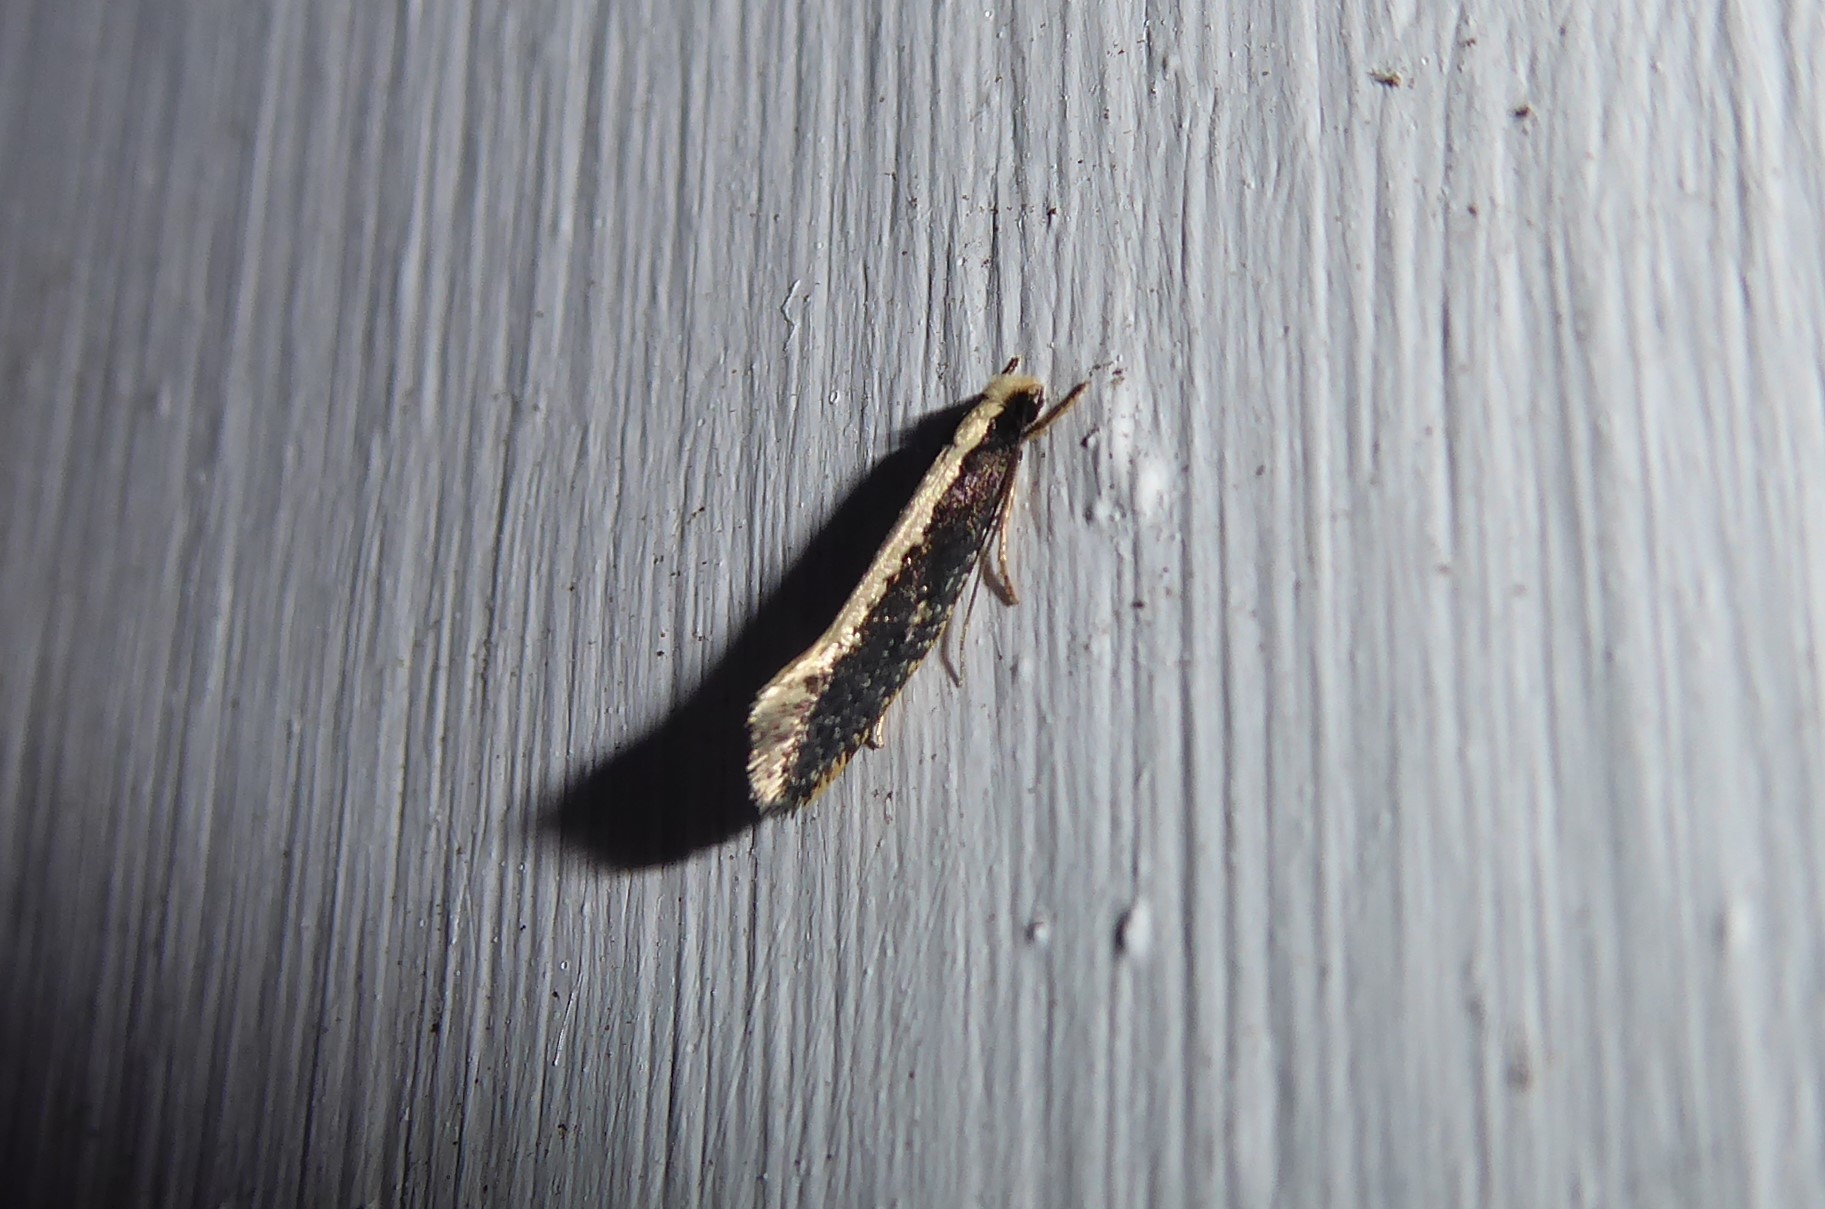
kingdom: Animalia
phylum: Arthropoda
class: Insecta
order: Lepidoptera
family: Tineidae
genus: Monopis
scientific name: Monopis ethelella
